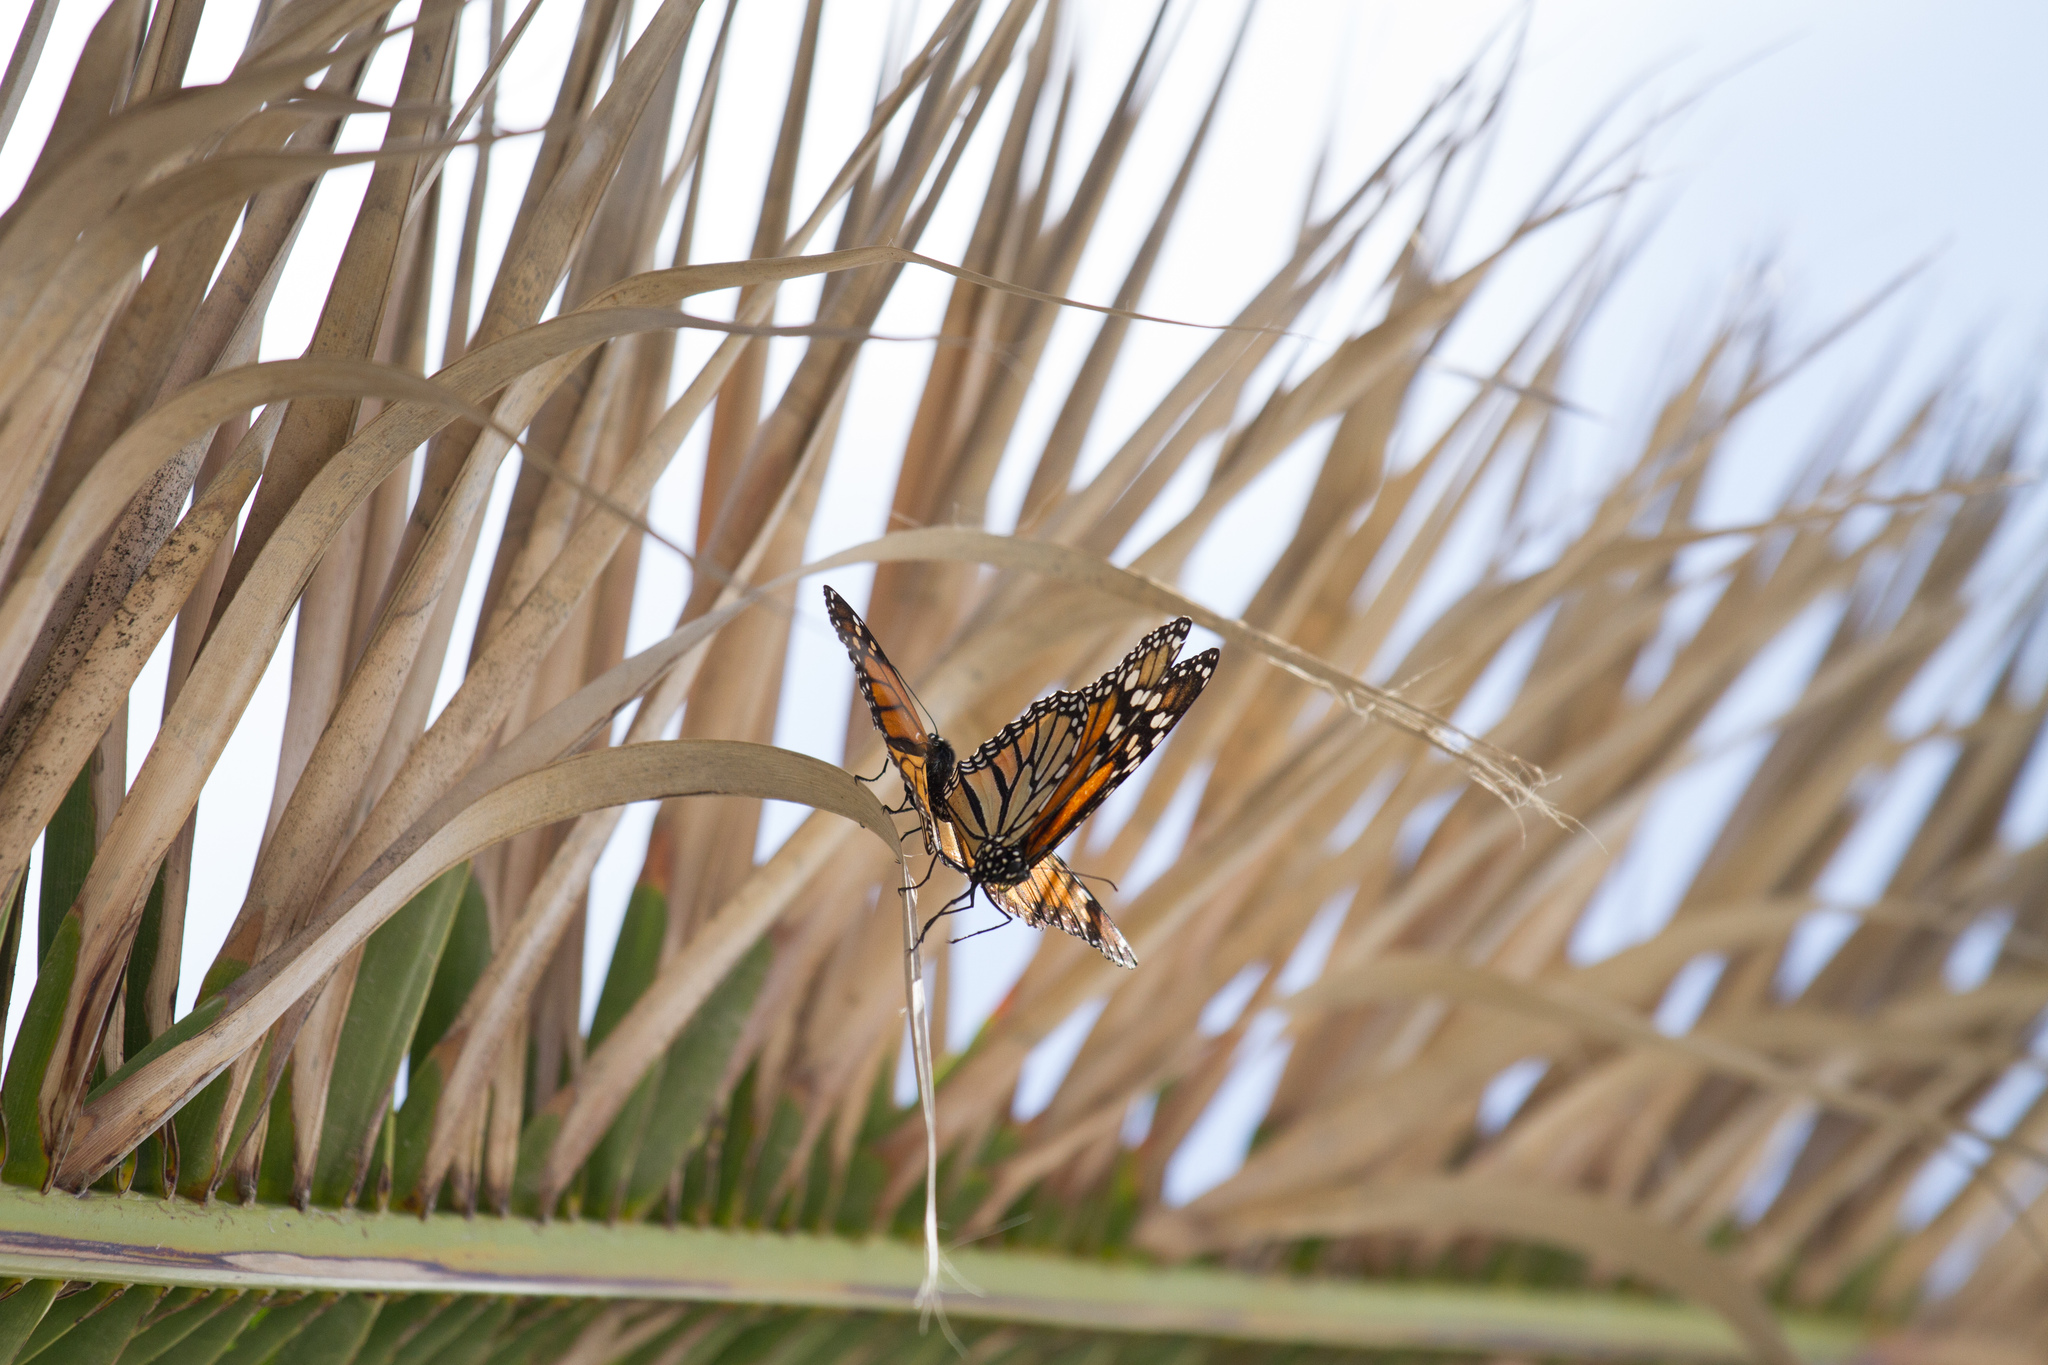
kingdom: Animalia
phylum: Arthropoda
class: Insecta
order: Lepidoptera
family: Nymphalidae
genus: Danaus
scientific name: Danaus plexippus
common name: Monarch
